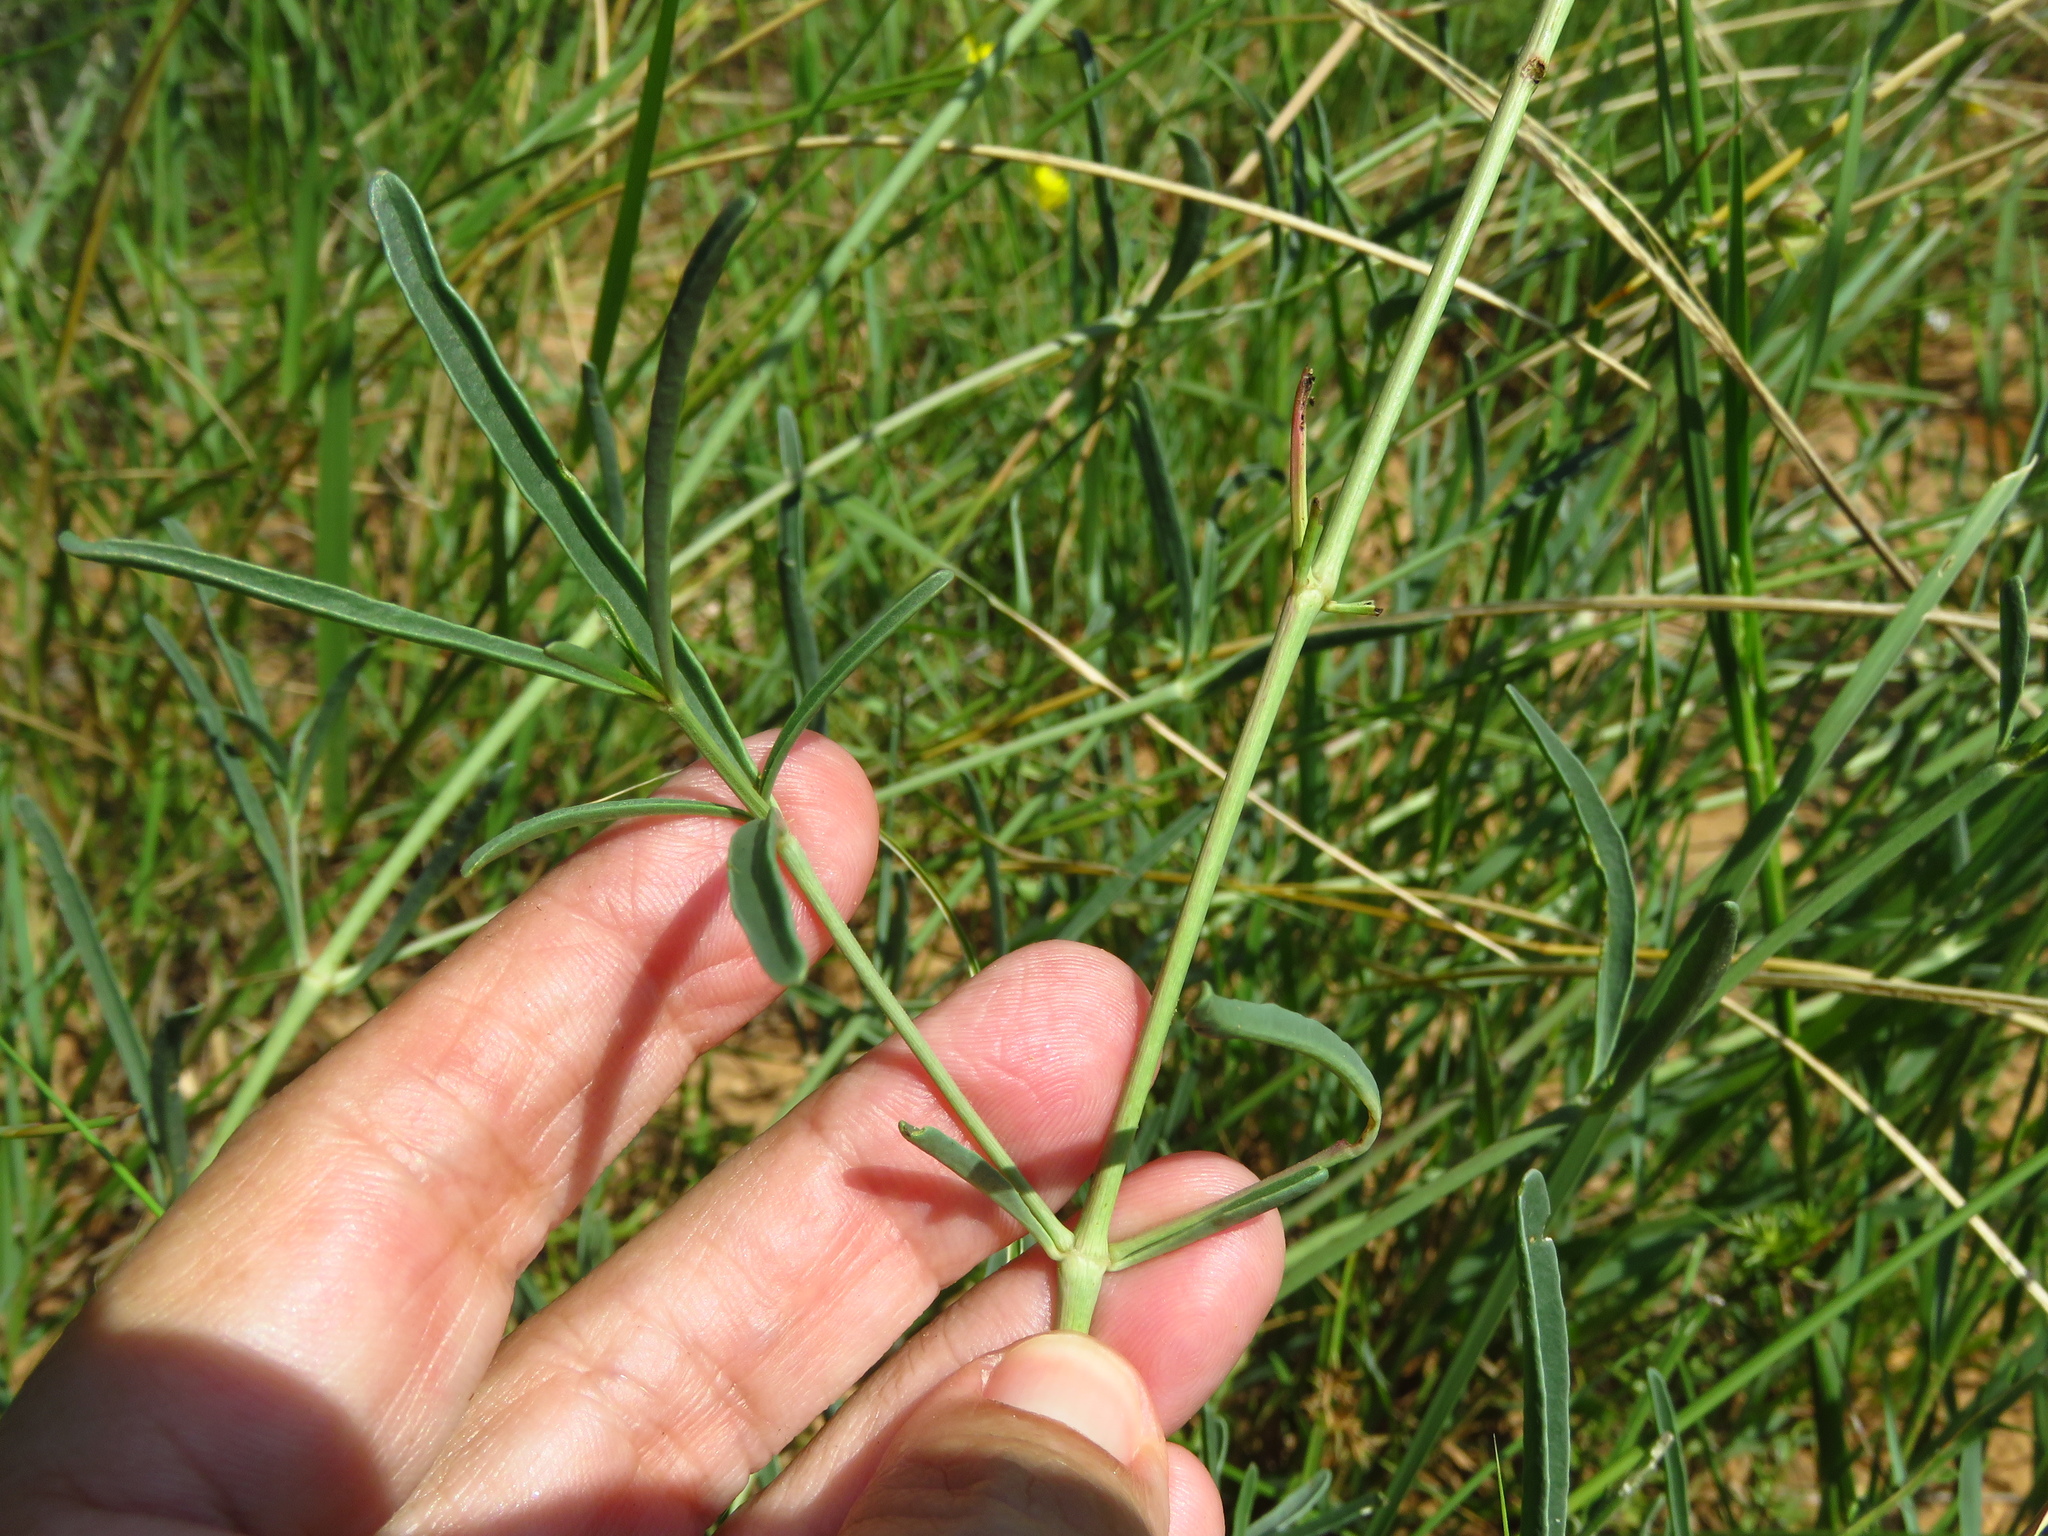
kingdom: Plantae
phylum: Tracheophyta
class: Magnoliopsida
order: Caryophyllales
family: Nyctaginaceae
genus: Mirabilis
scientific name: Mirabilis albida
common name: Hairy four-o'clock
